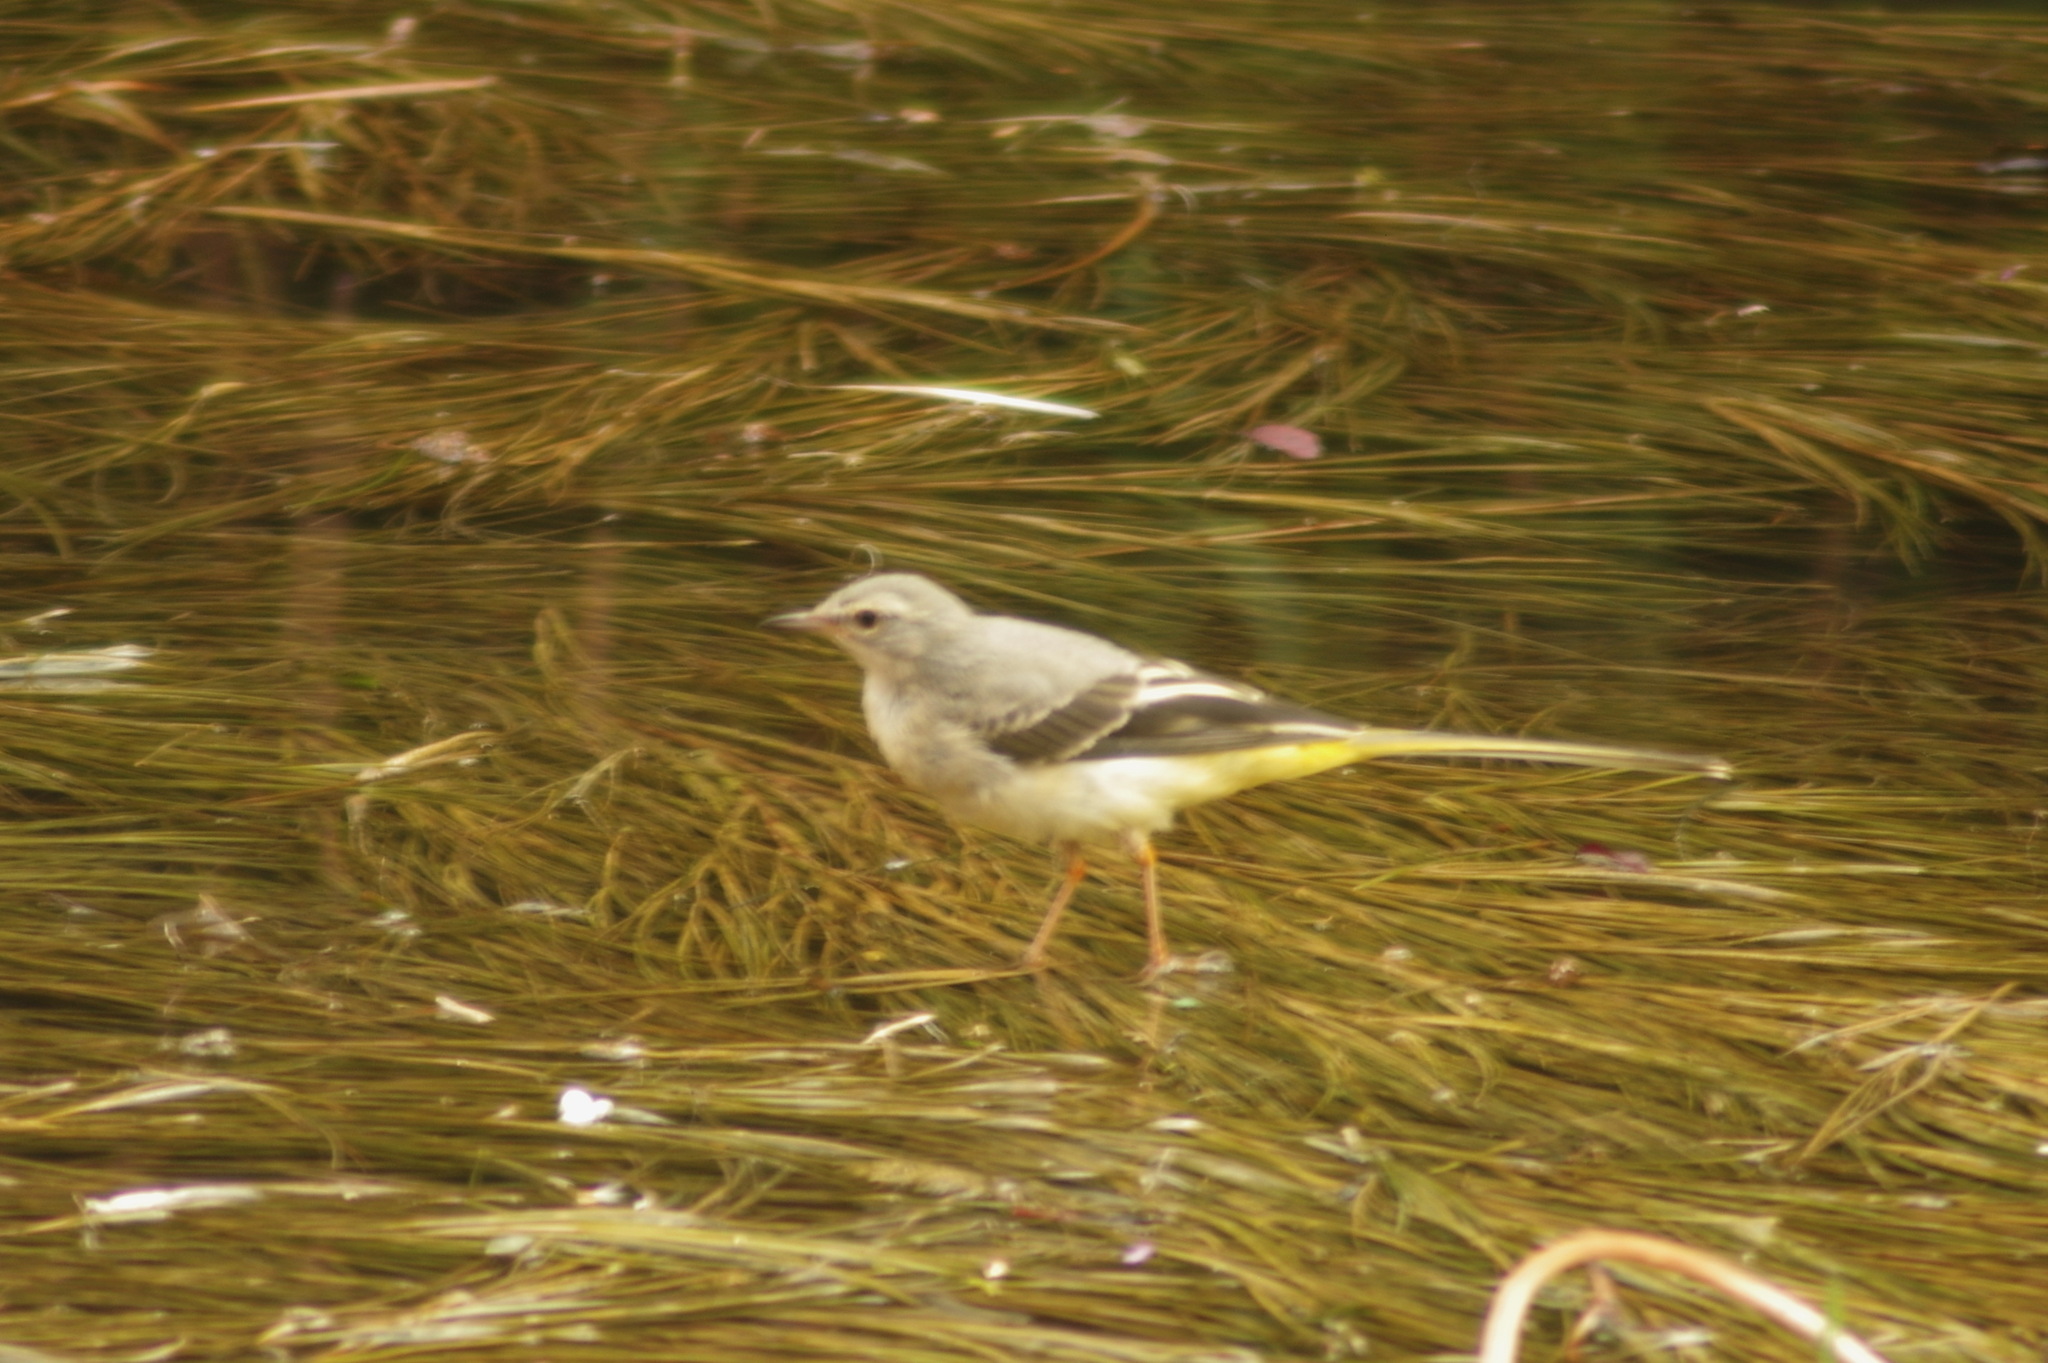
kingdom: Animalia
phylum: Chordata
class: Aves
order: Passeriformes
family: Motacillidae
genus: Motacilla
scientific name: Motacilla cinerea
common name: Grey wagtail
